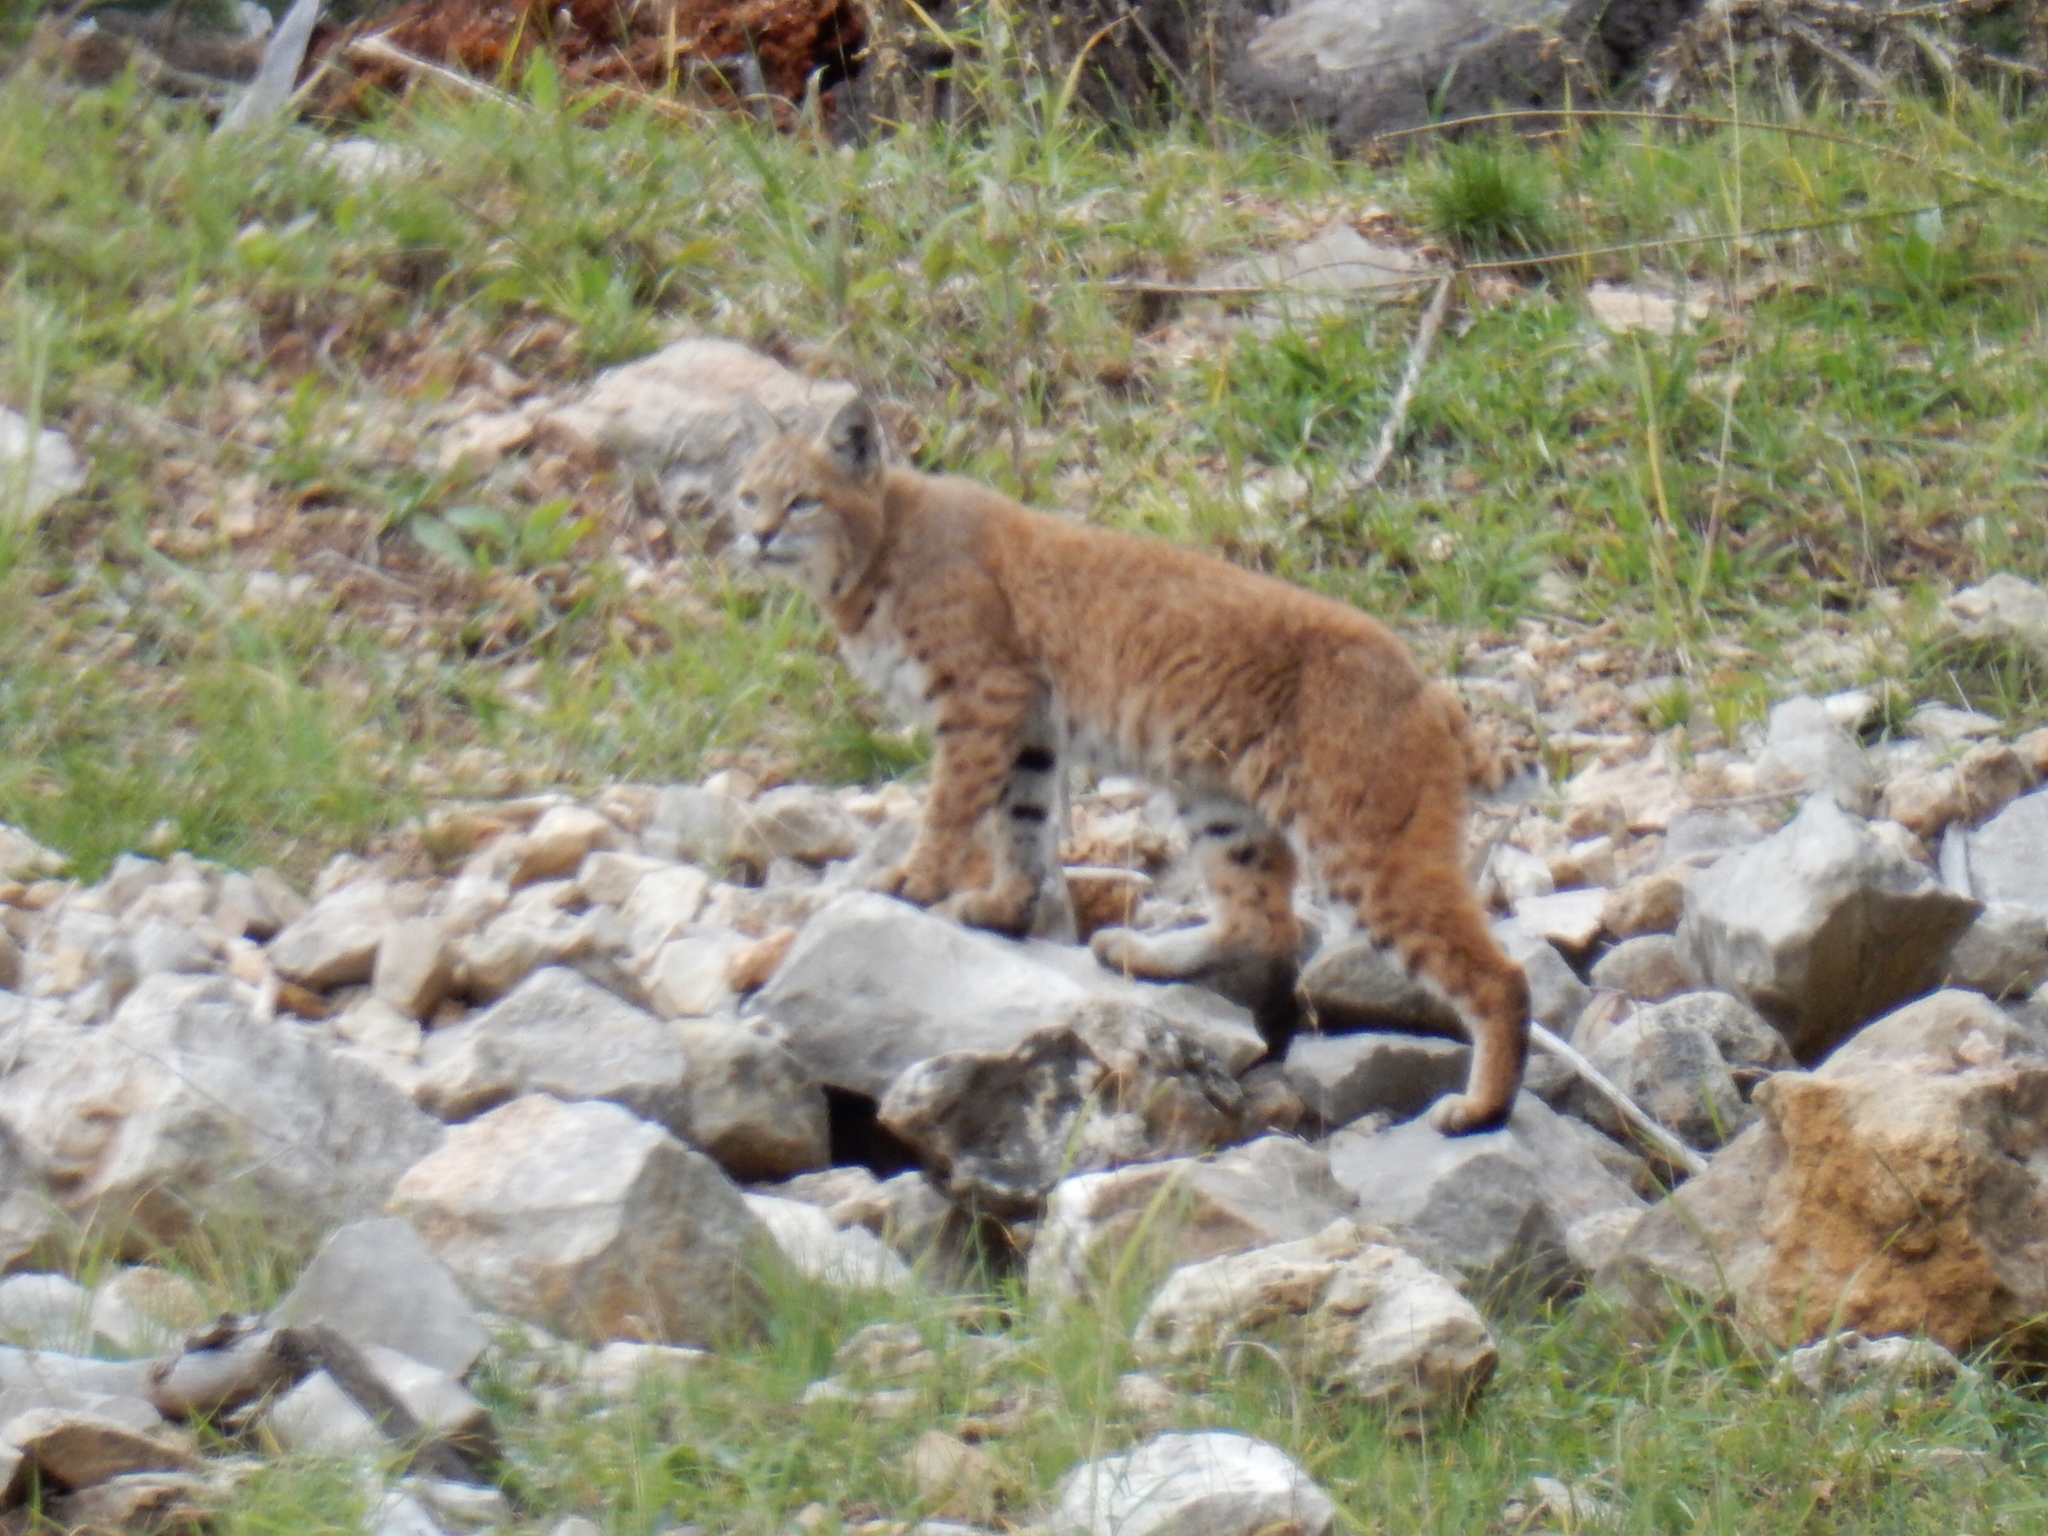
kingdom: Animalia
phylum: Chordata
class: Mammalia
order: Carnivora
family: Felidae
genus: Lynx
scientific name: Lynx rufus
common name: Bobcat
